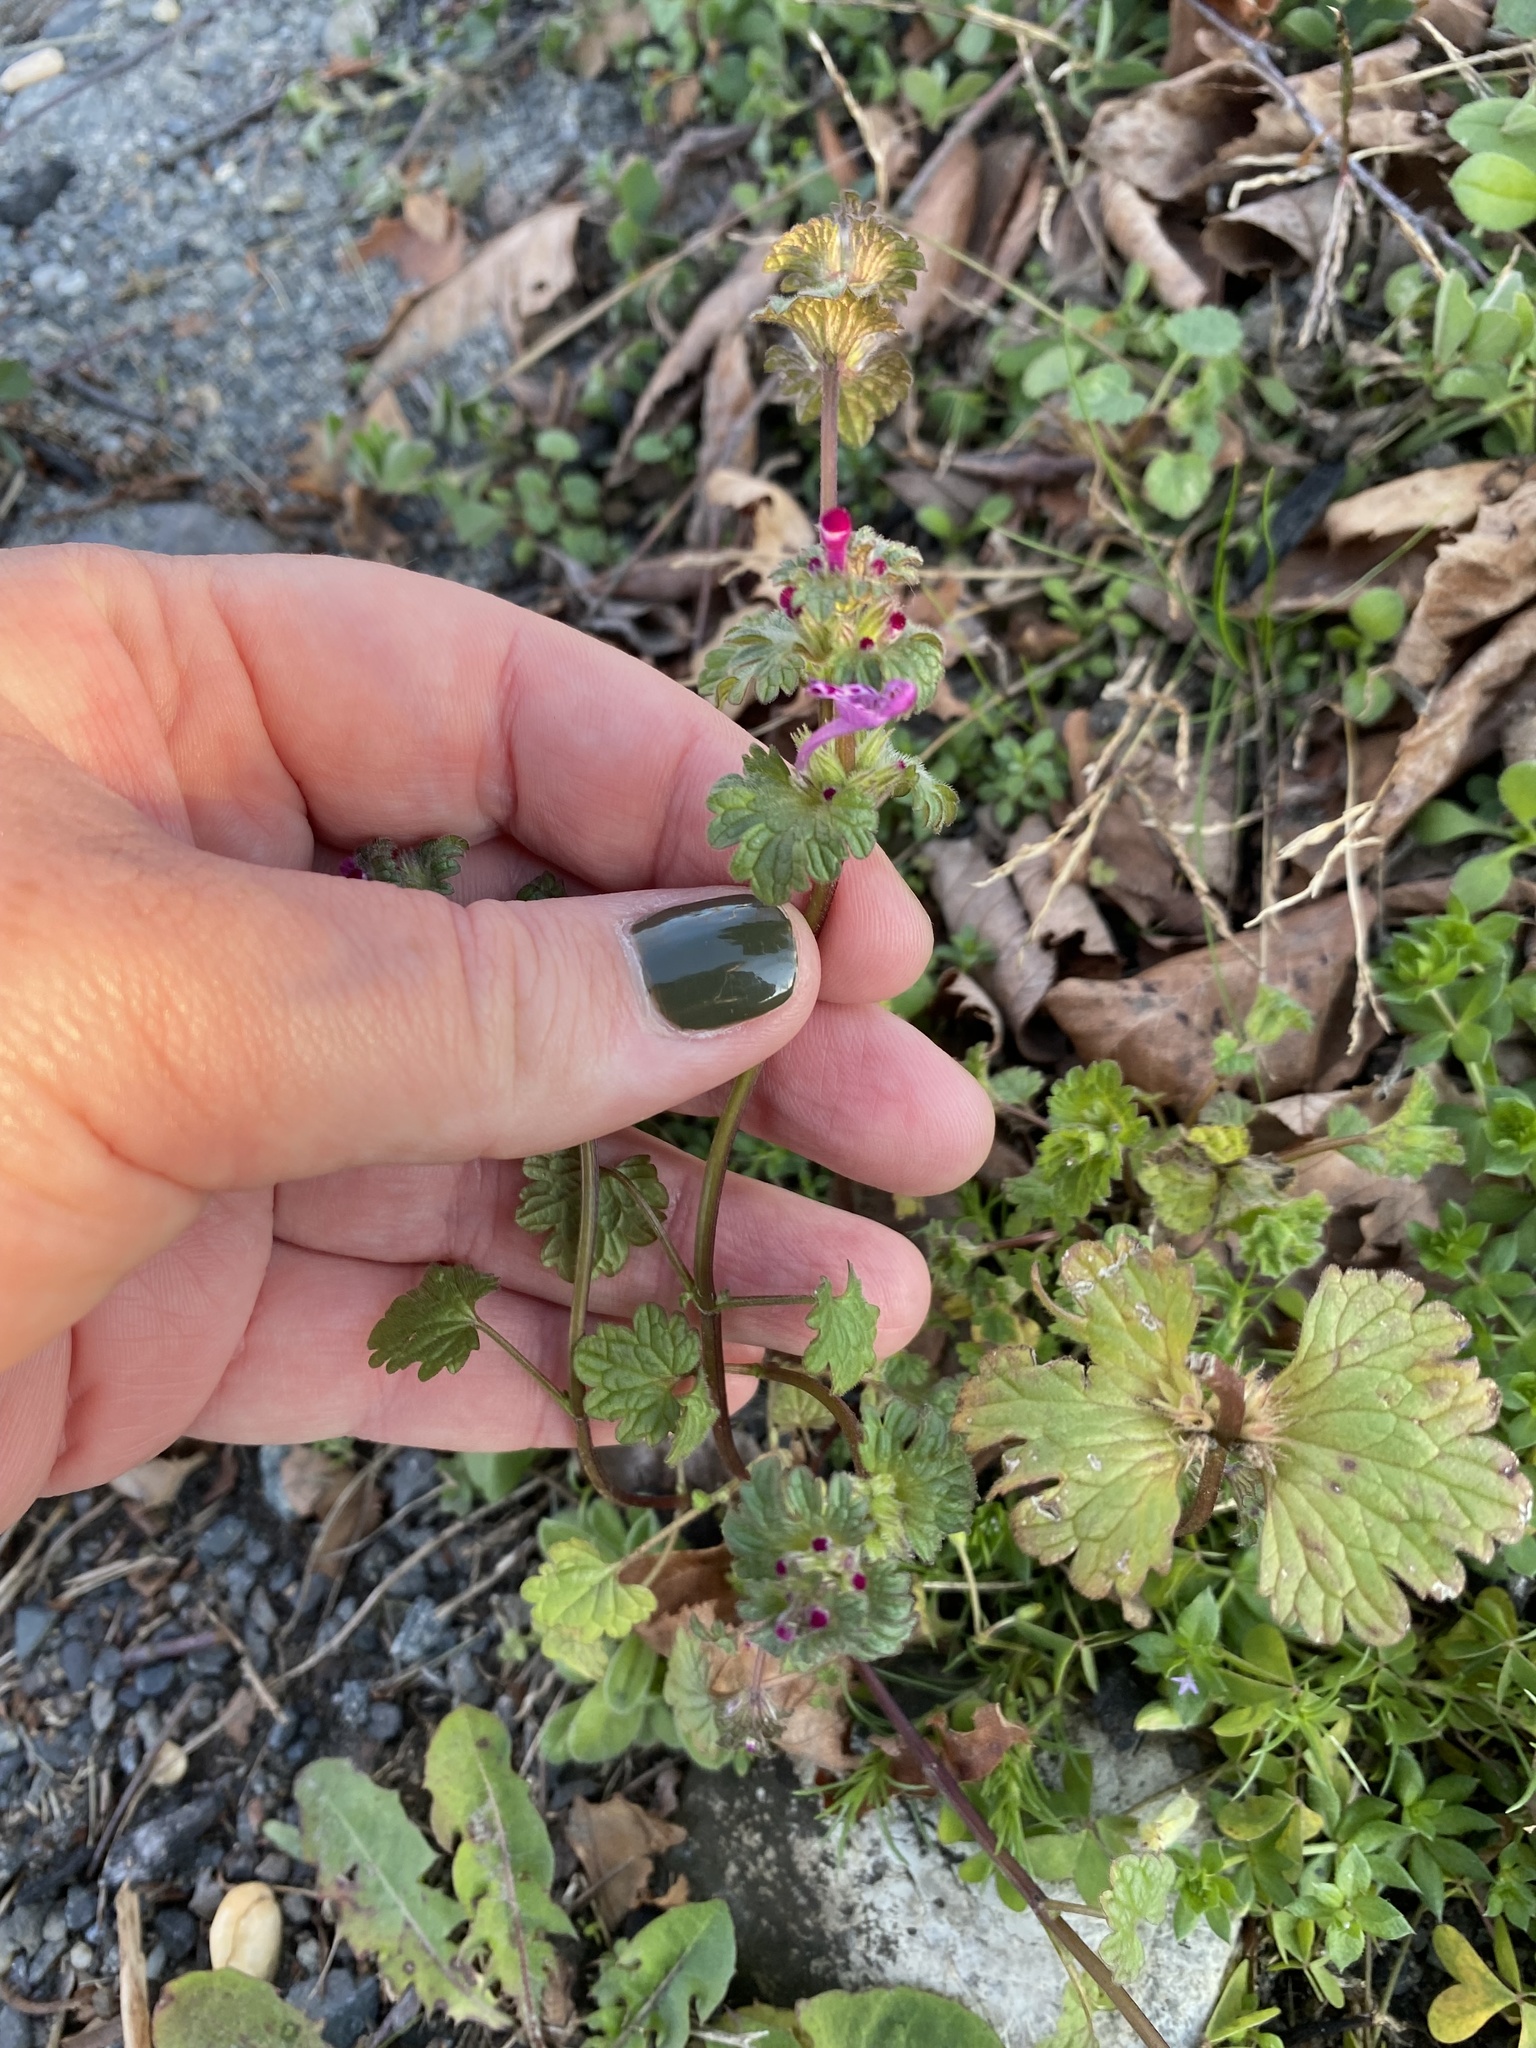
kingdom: Plantae
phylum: Tracheophyta
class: Magnoliopsida
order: Lamiales
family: Lamiaceae
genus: Lamium
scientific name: Lamium amplexicaule
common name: Henbit dead-nettle
